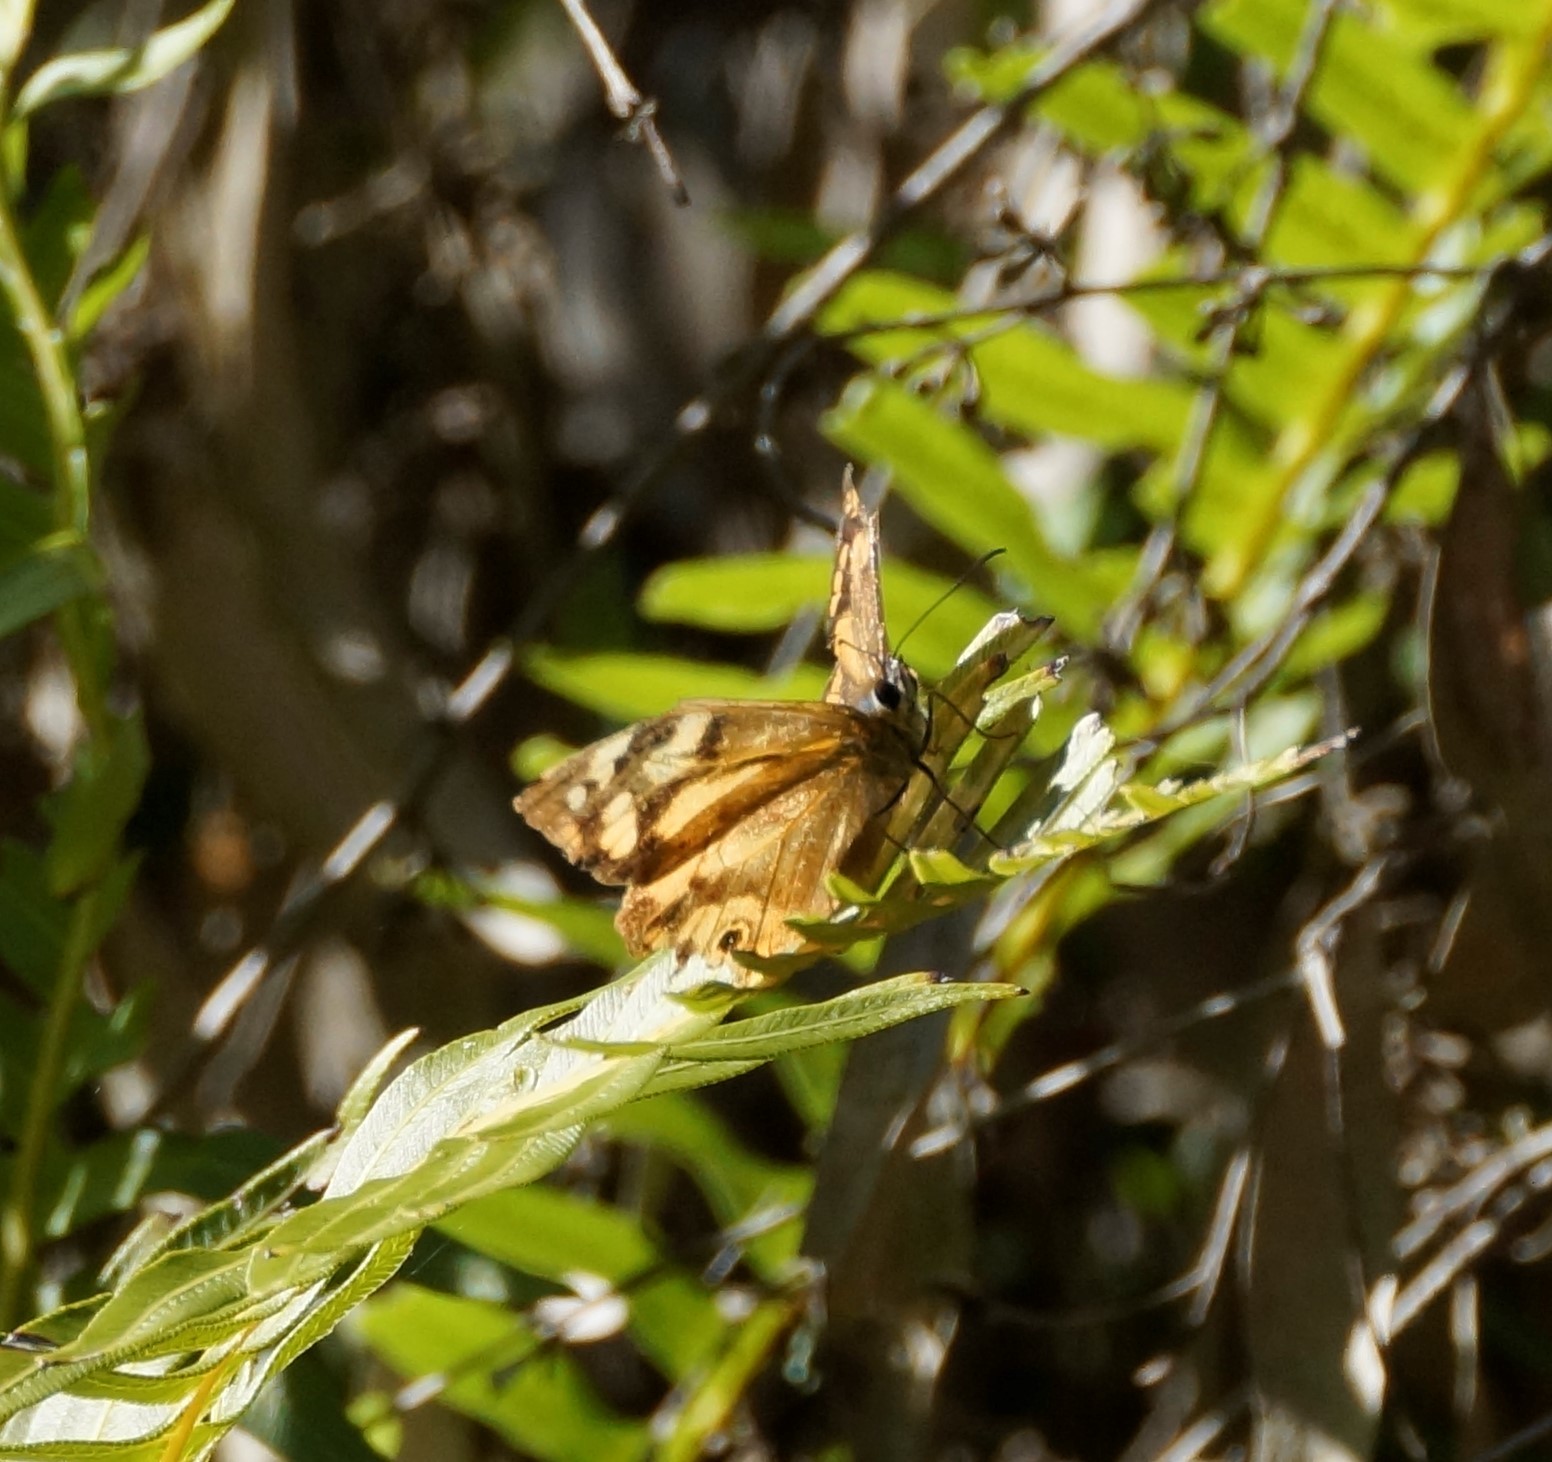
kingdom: Animalia
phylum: Arthropoda
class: Insecta
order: Lepidoptera
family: Nymphalidae
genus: Heteronympha
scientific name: Heteronympha banksii
